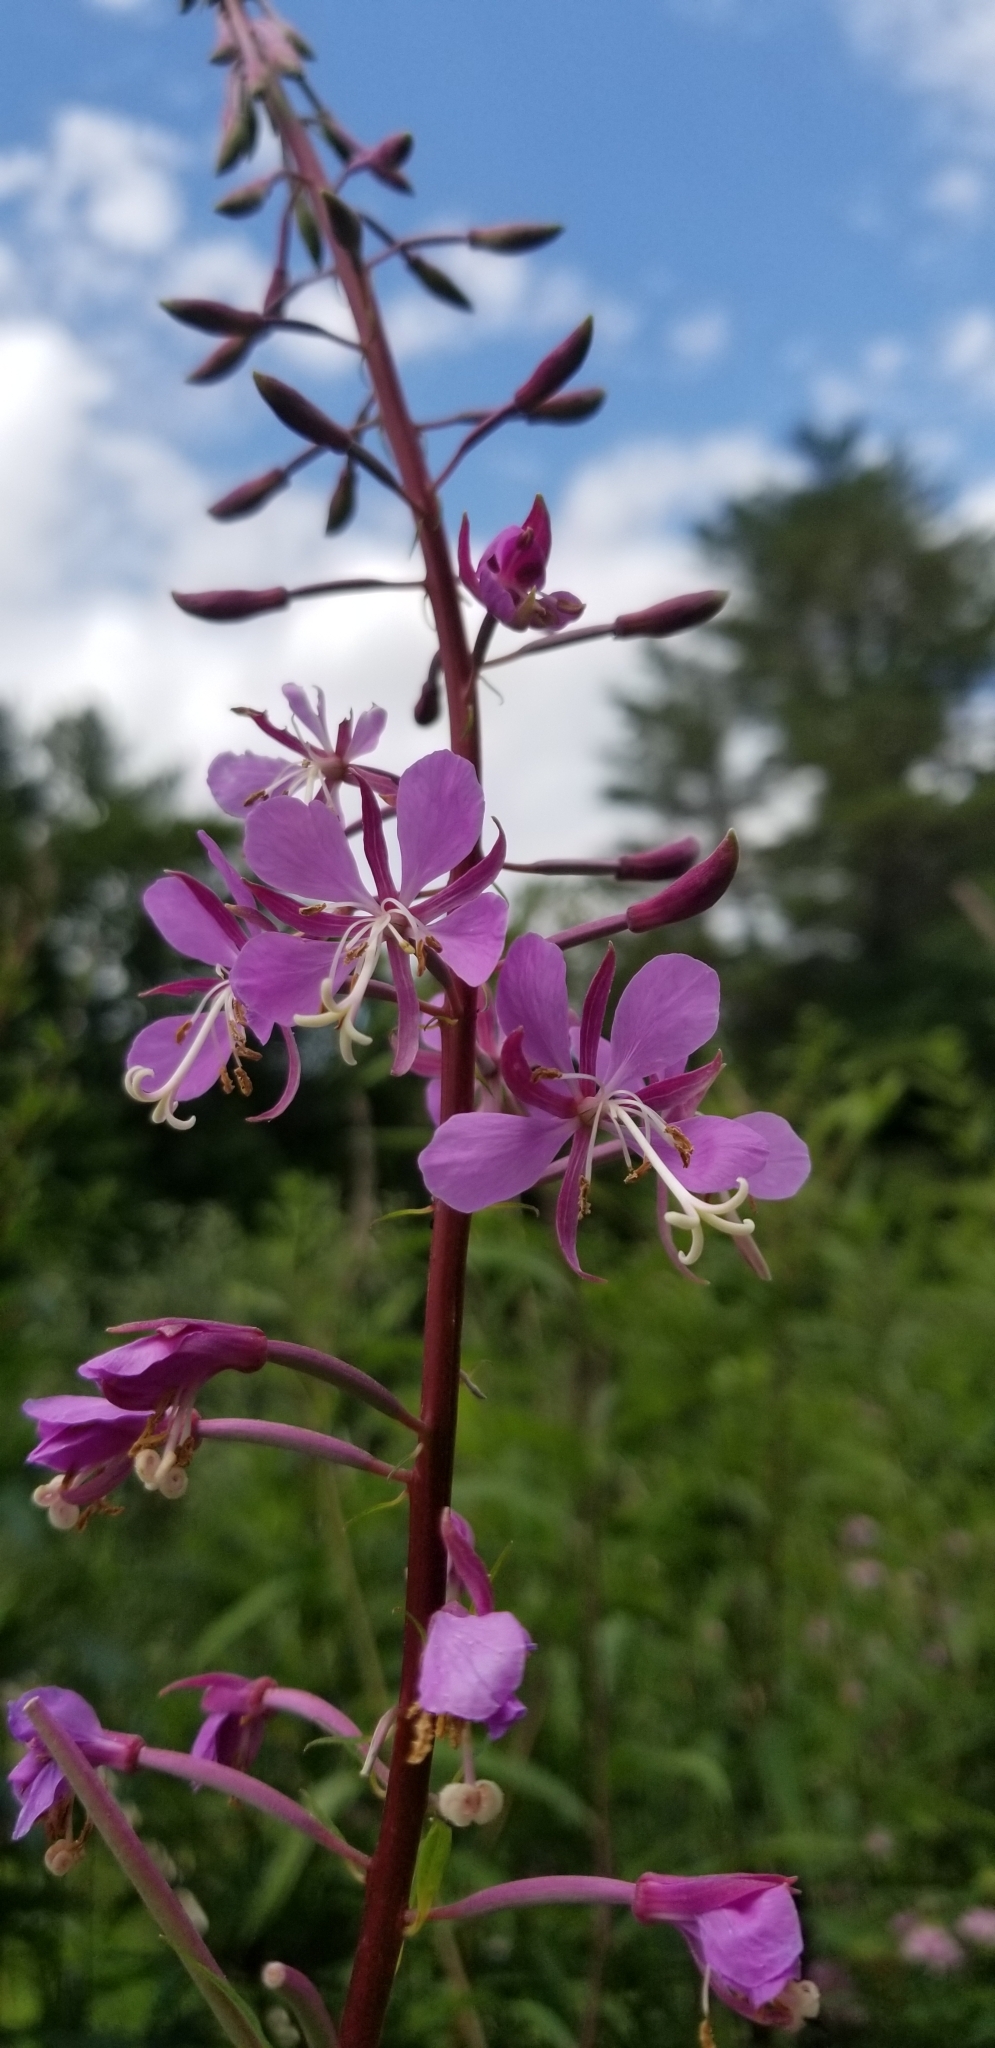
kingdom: Plantae
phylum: Tracheophyta
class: Magnoliopsida
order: Myrtales
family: Onagraceae
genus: Chamaenerion
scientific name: Chamaenerion angustifolium
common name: Fireweed
